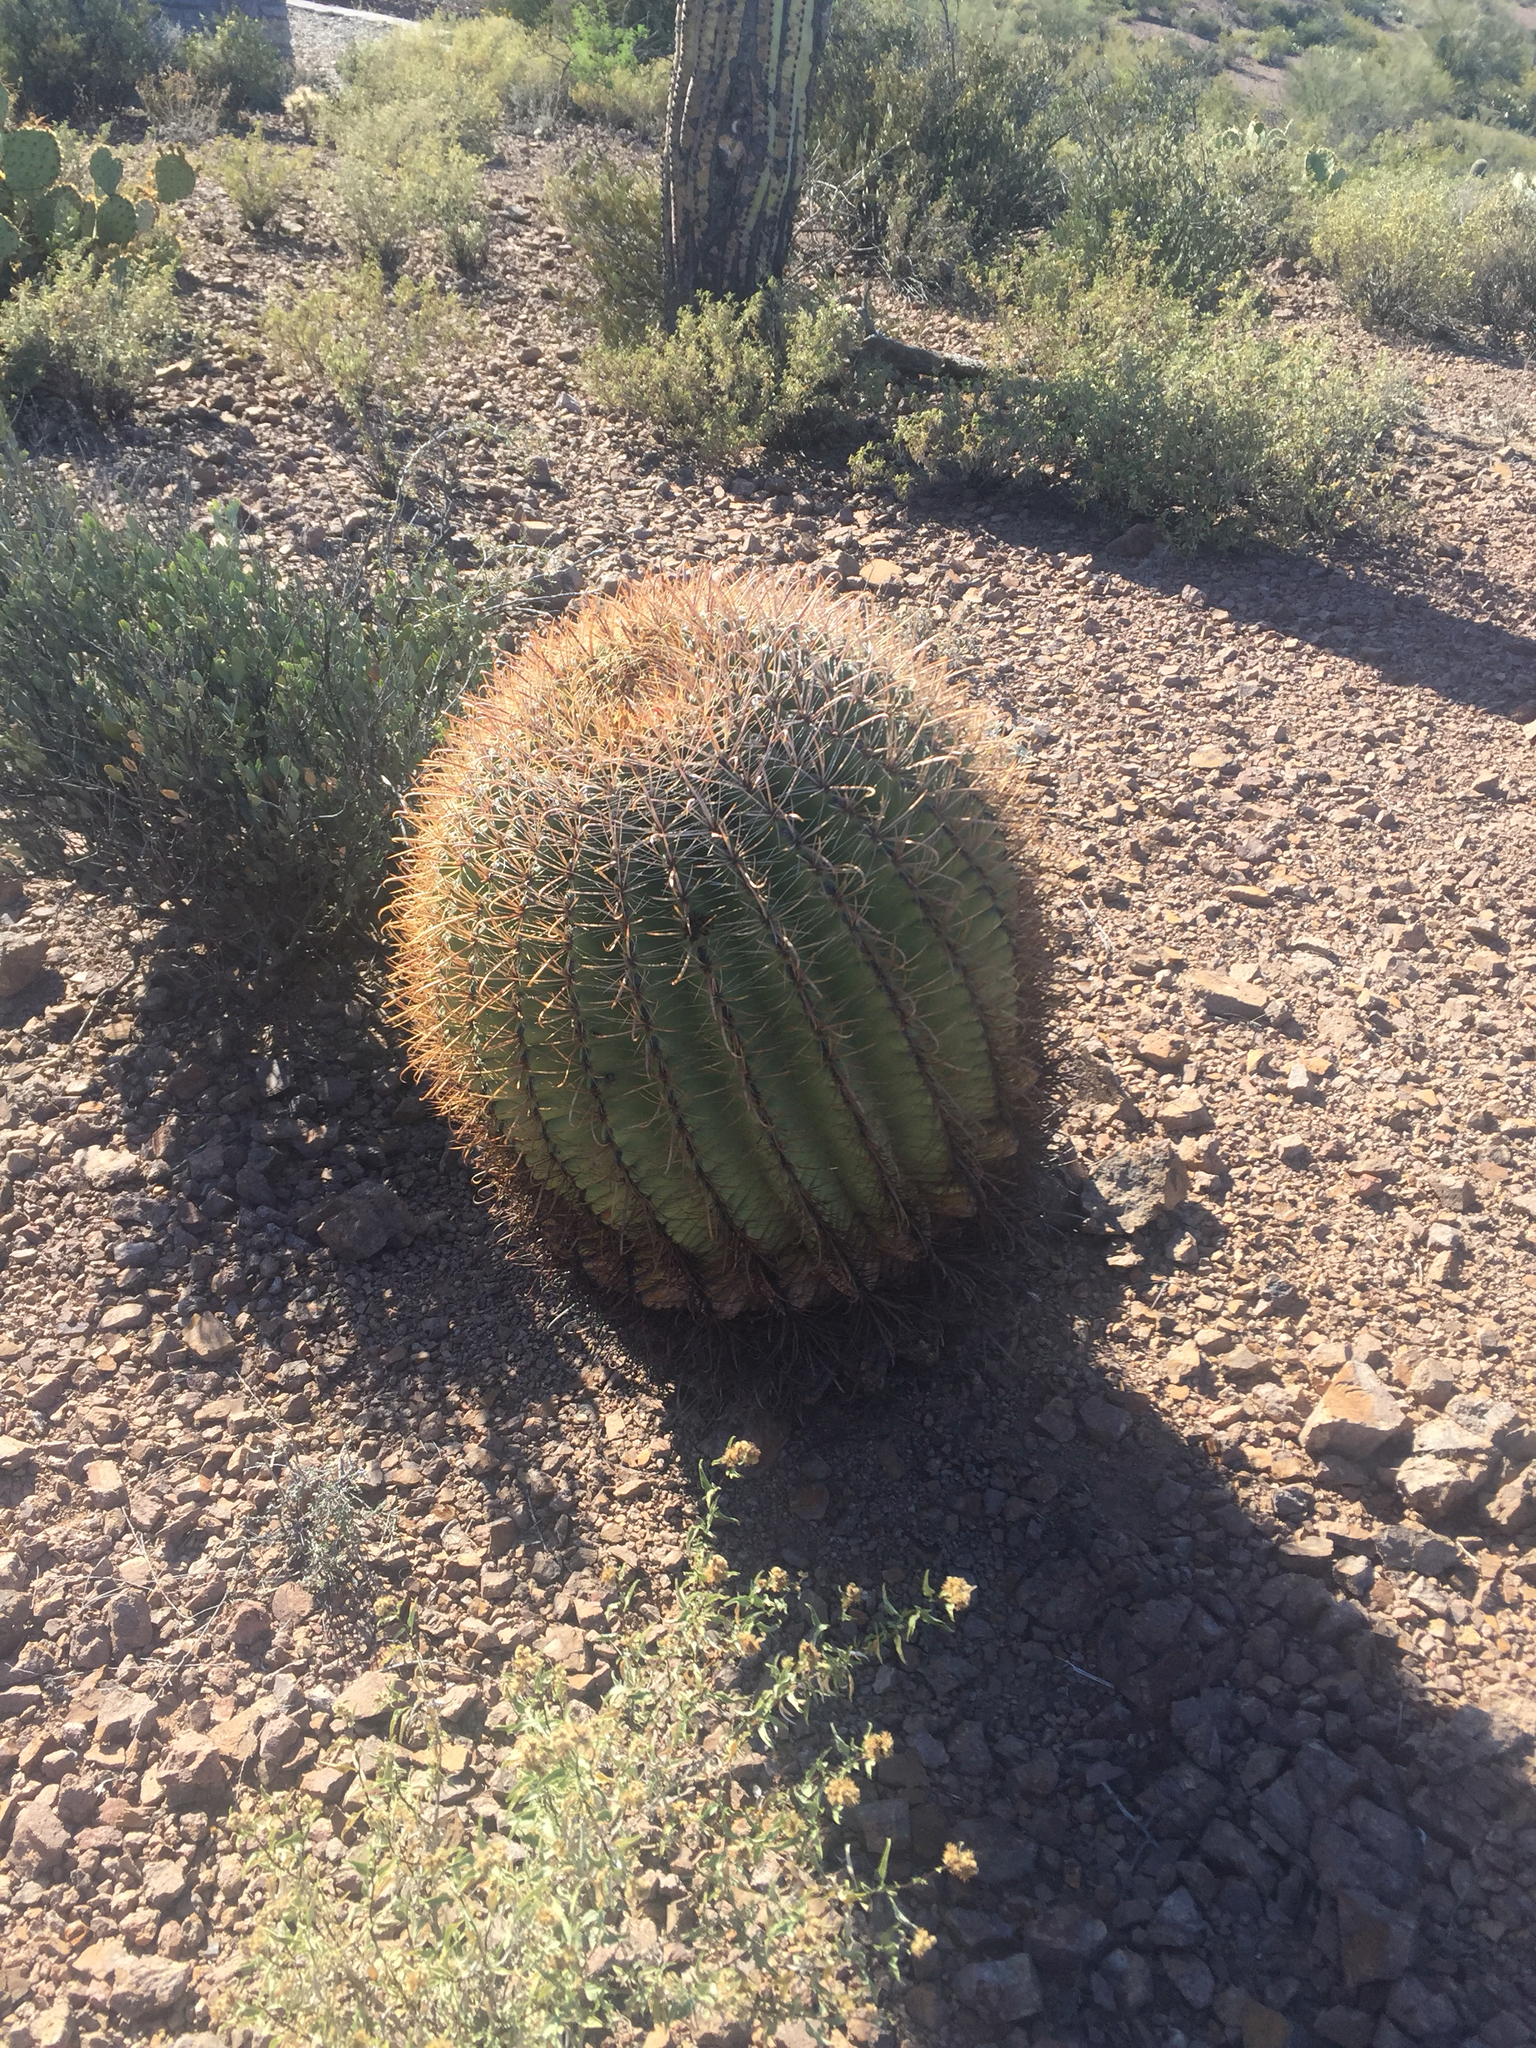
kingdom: Plantae
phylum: Tracheophyta
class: Magnoliopsida
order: Caryophyllales
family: Cactaceae
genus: Ferocactus
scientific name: Ferocactus wislizeni
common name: Candy barrel cactus
